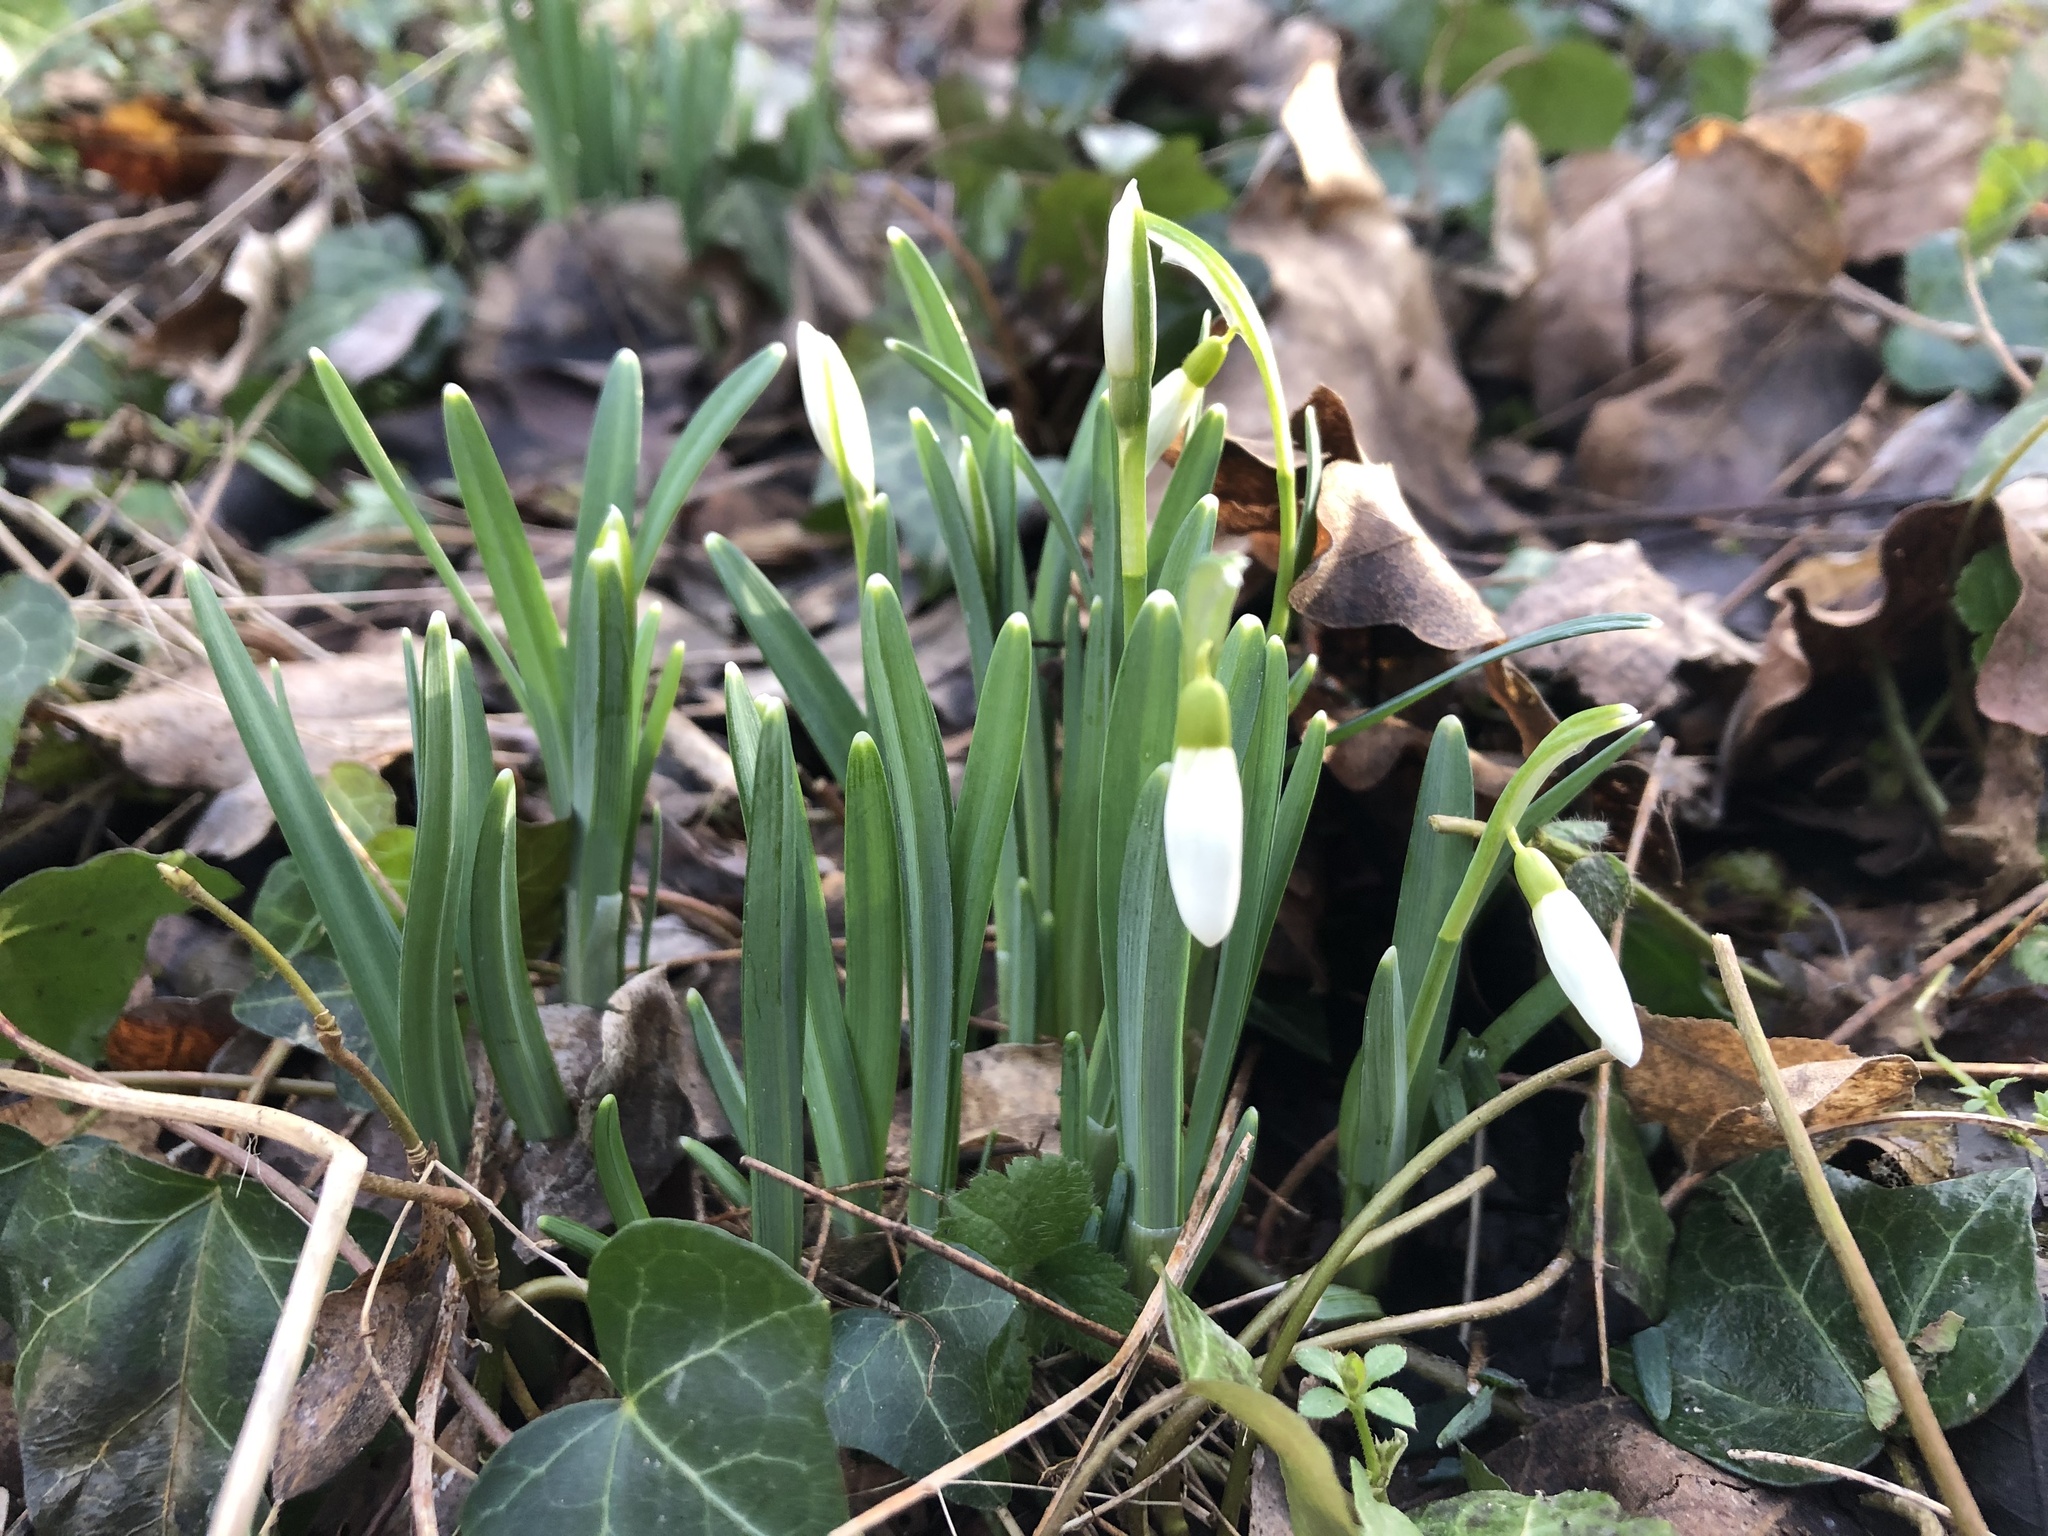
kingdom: Plantae
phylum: Tracheophyta
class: Liliopsida
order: Asparagales
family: Amaryllidaceae
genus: Galanthus
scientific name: Galanthus nivalis
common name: Snowdrop
